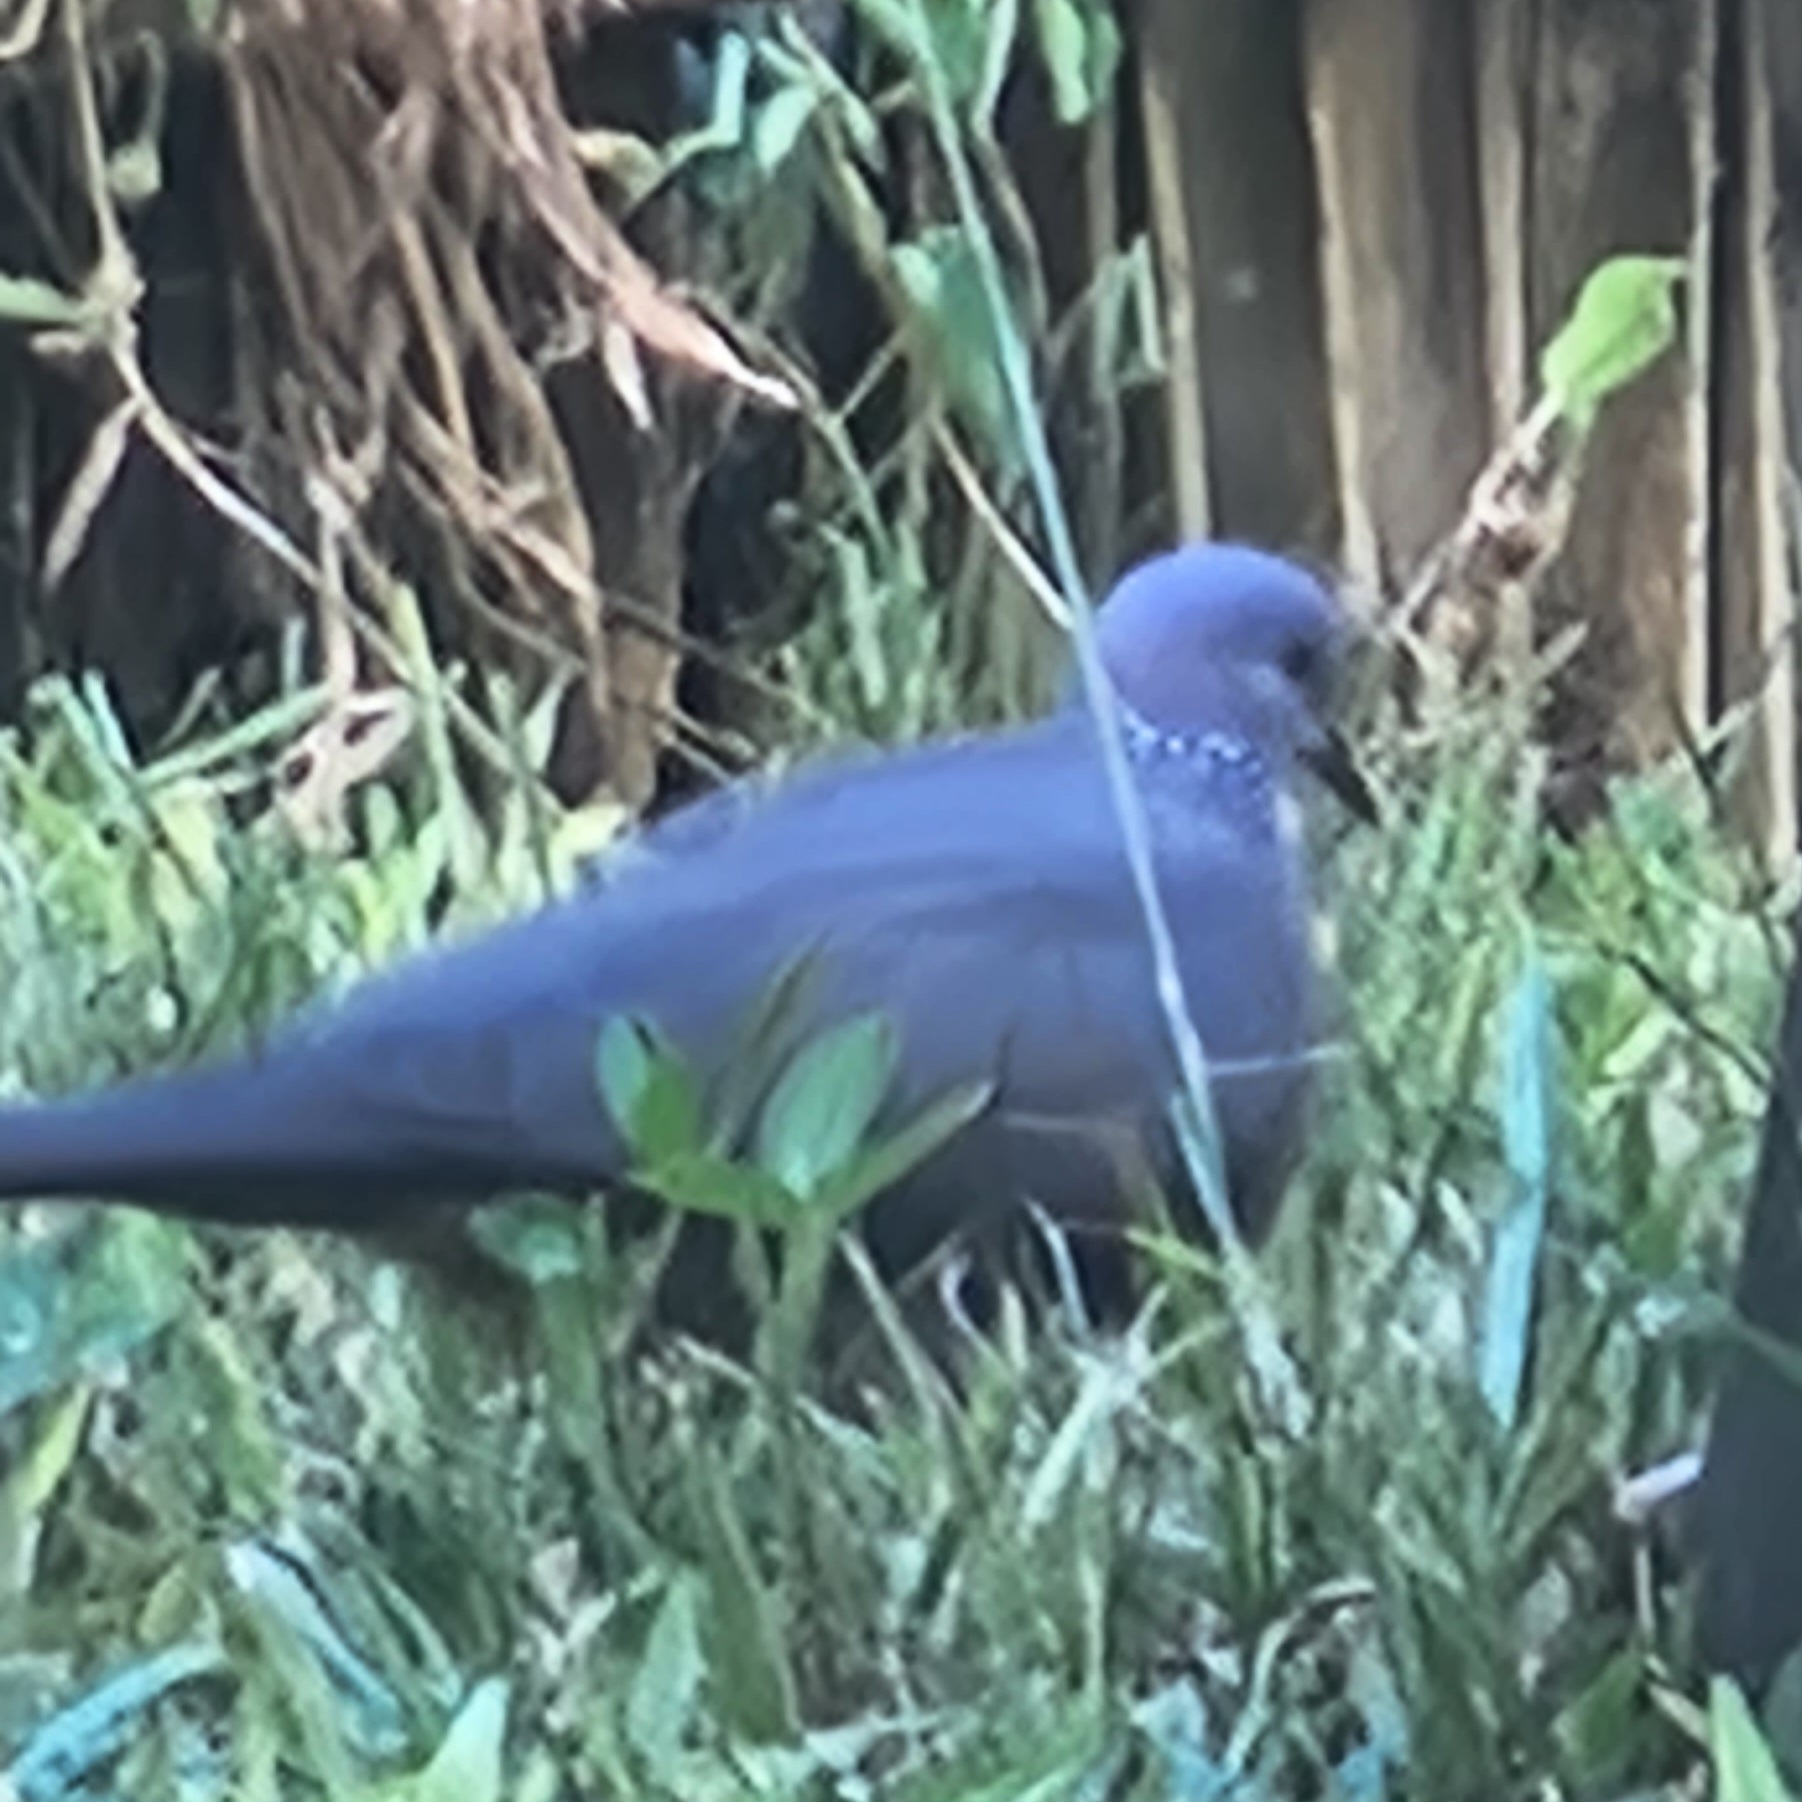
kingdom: Animalia
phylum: Chordata
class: Aves
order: Columbiformes
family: Columbidae
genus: Spilopelia
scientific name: Spilopelia chinensis
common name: Spotted dove
